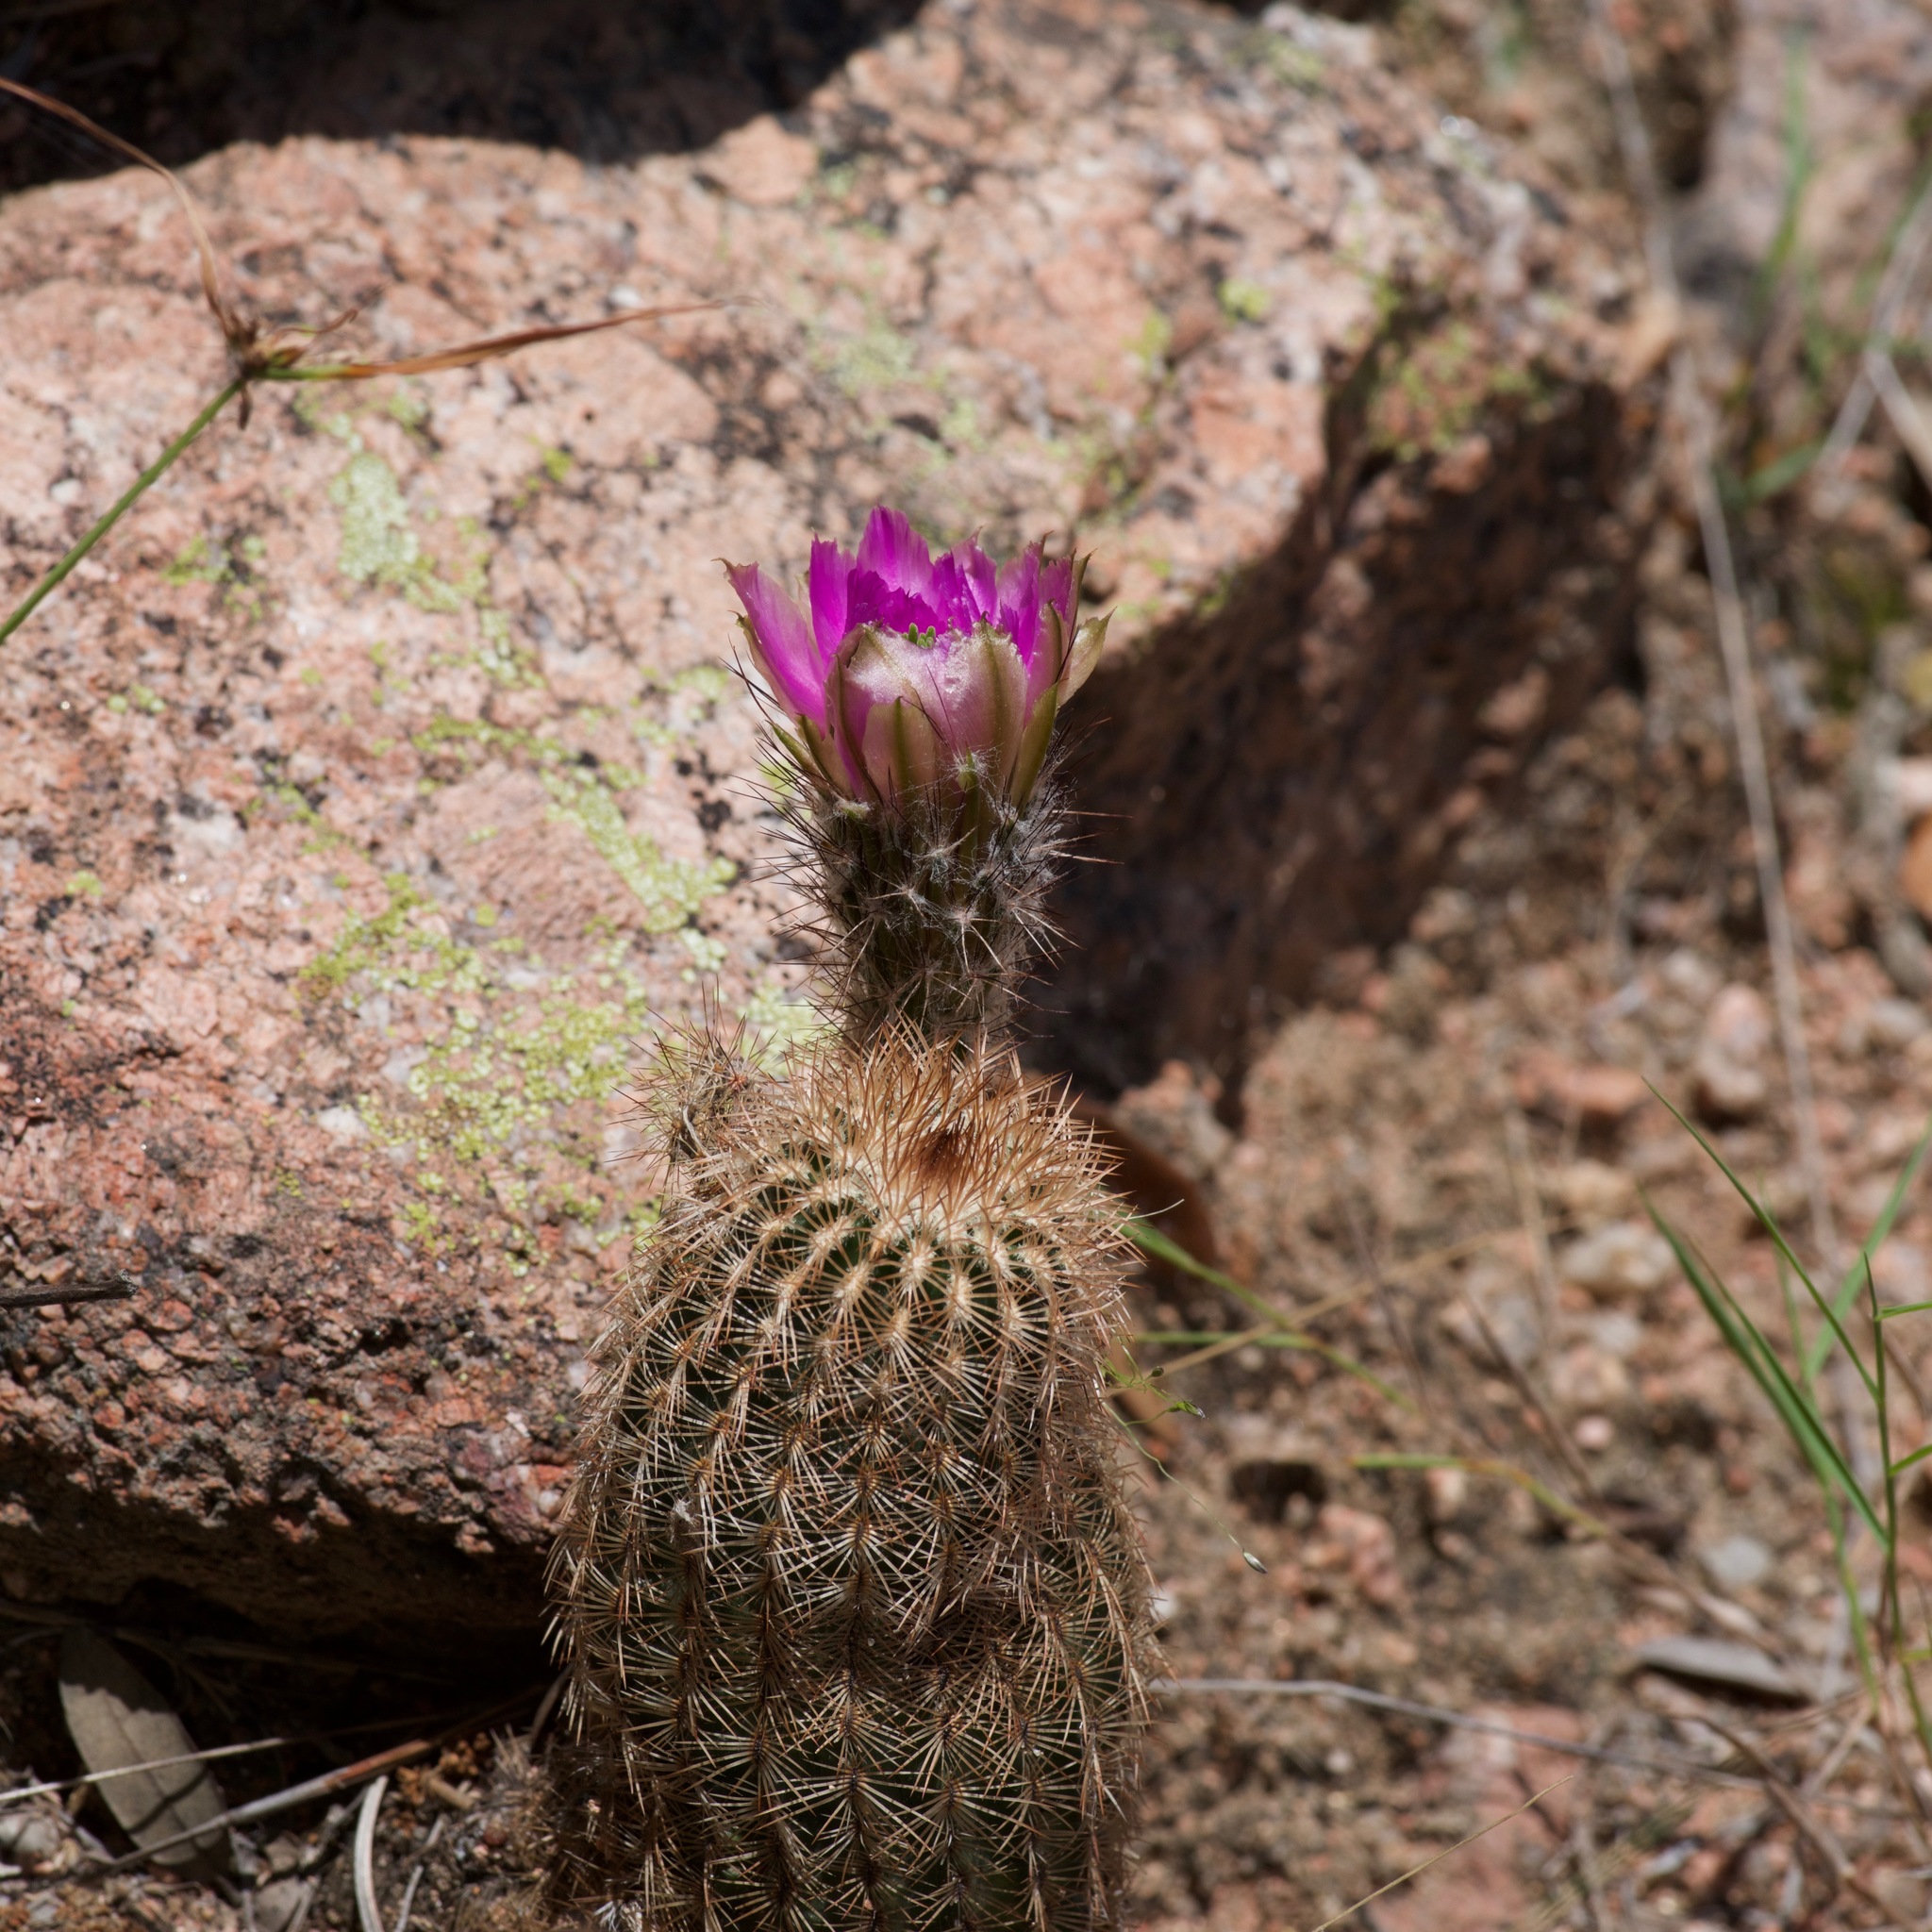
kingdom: Plantae
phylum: Tracheophyta
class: Magnoliopsida
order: Caryophyllales
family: Cactaceae
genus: Echinocereus
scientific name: Echinocereus reichenbachii
